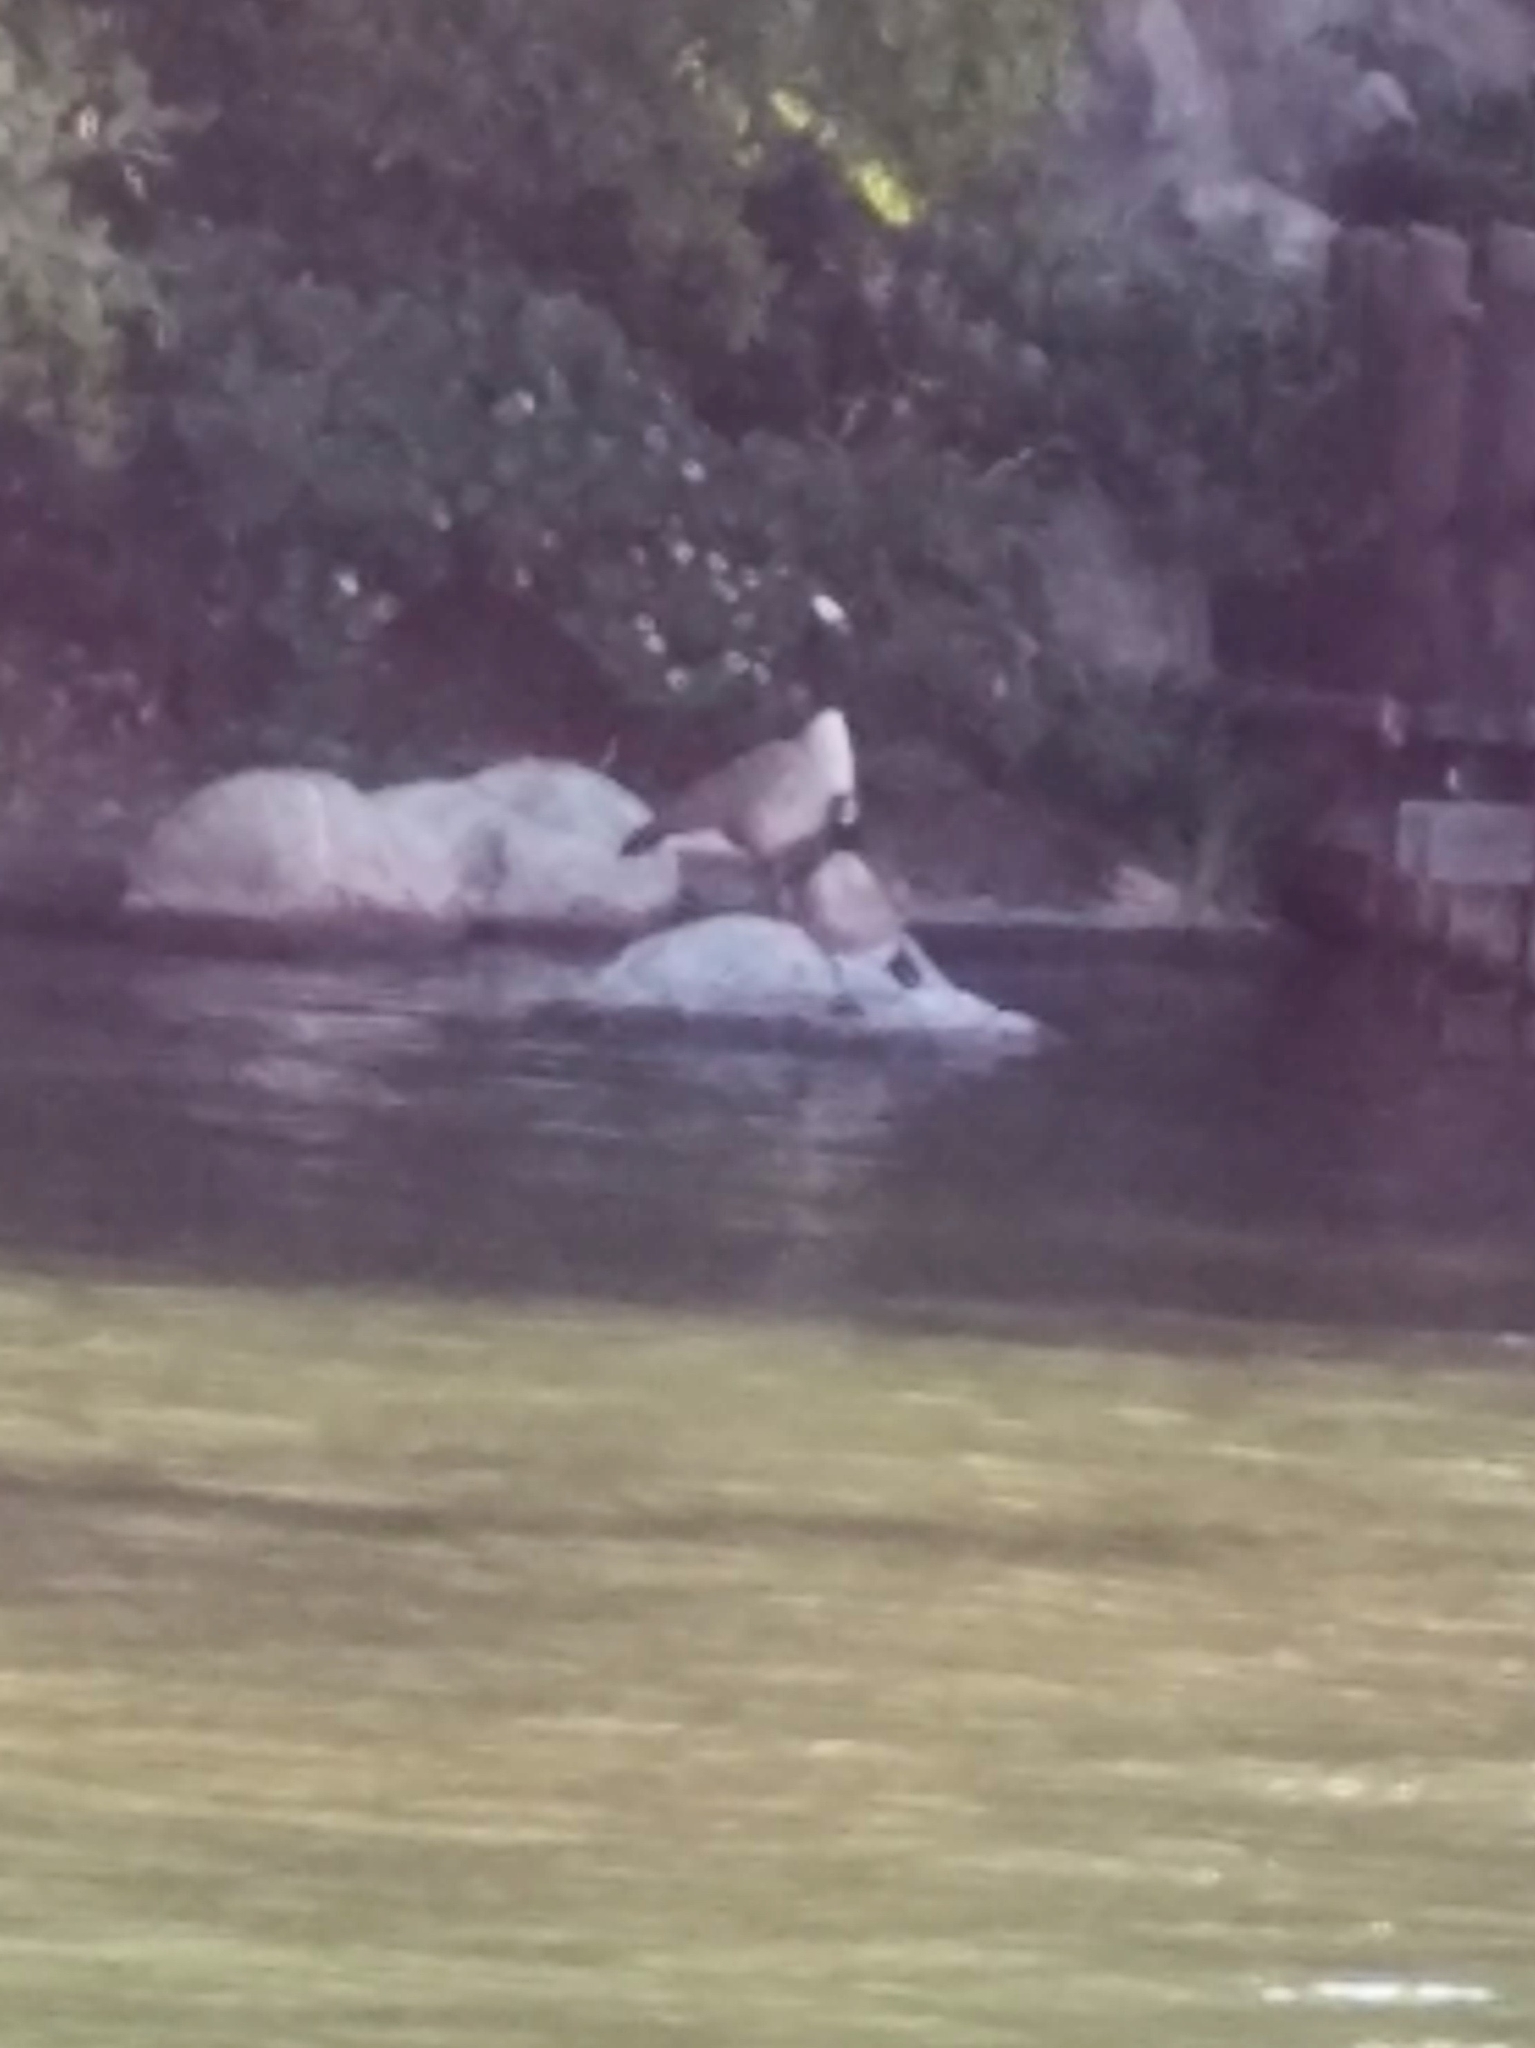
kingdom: Animalia
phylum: Chordata
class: Aves
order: Anseriformes
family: Anatidae
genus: Branta
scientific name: Branta canadensis
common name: Canada goose
